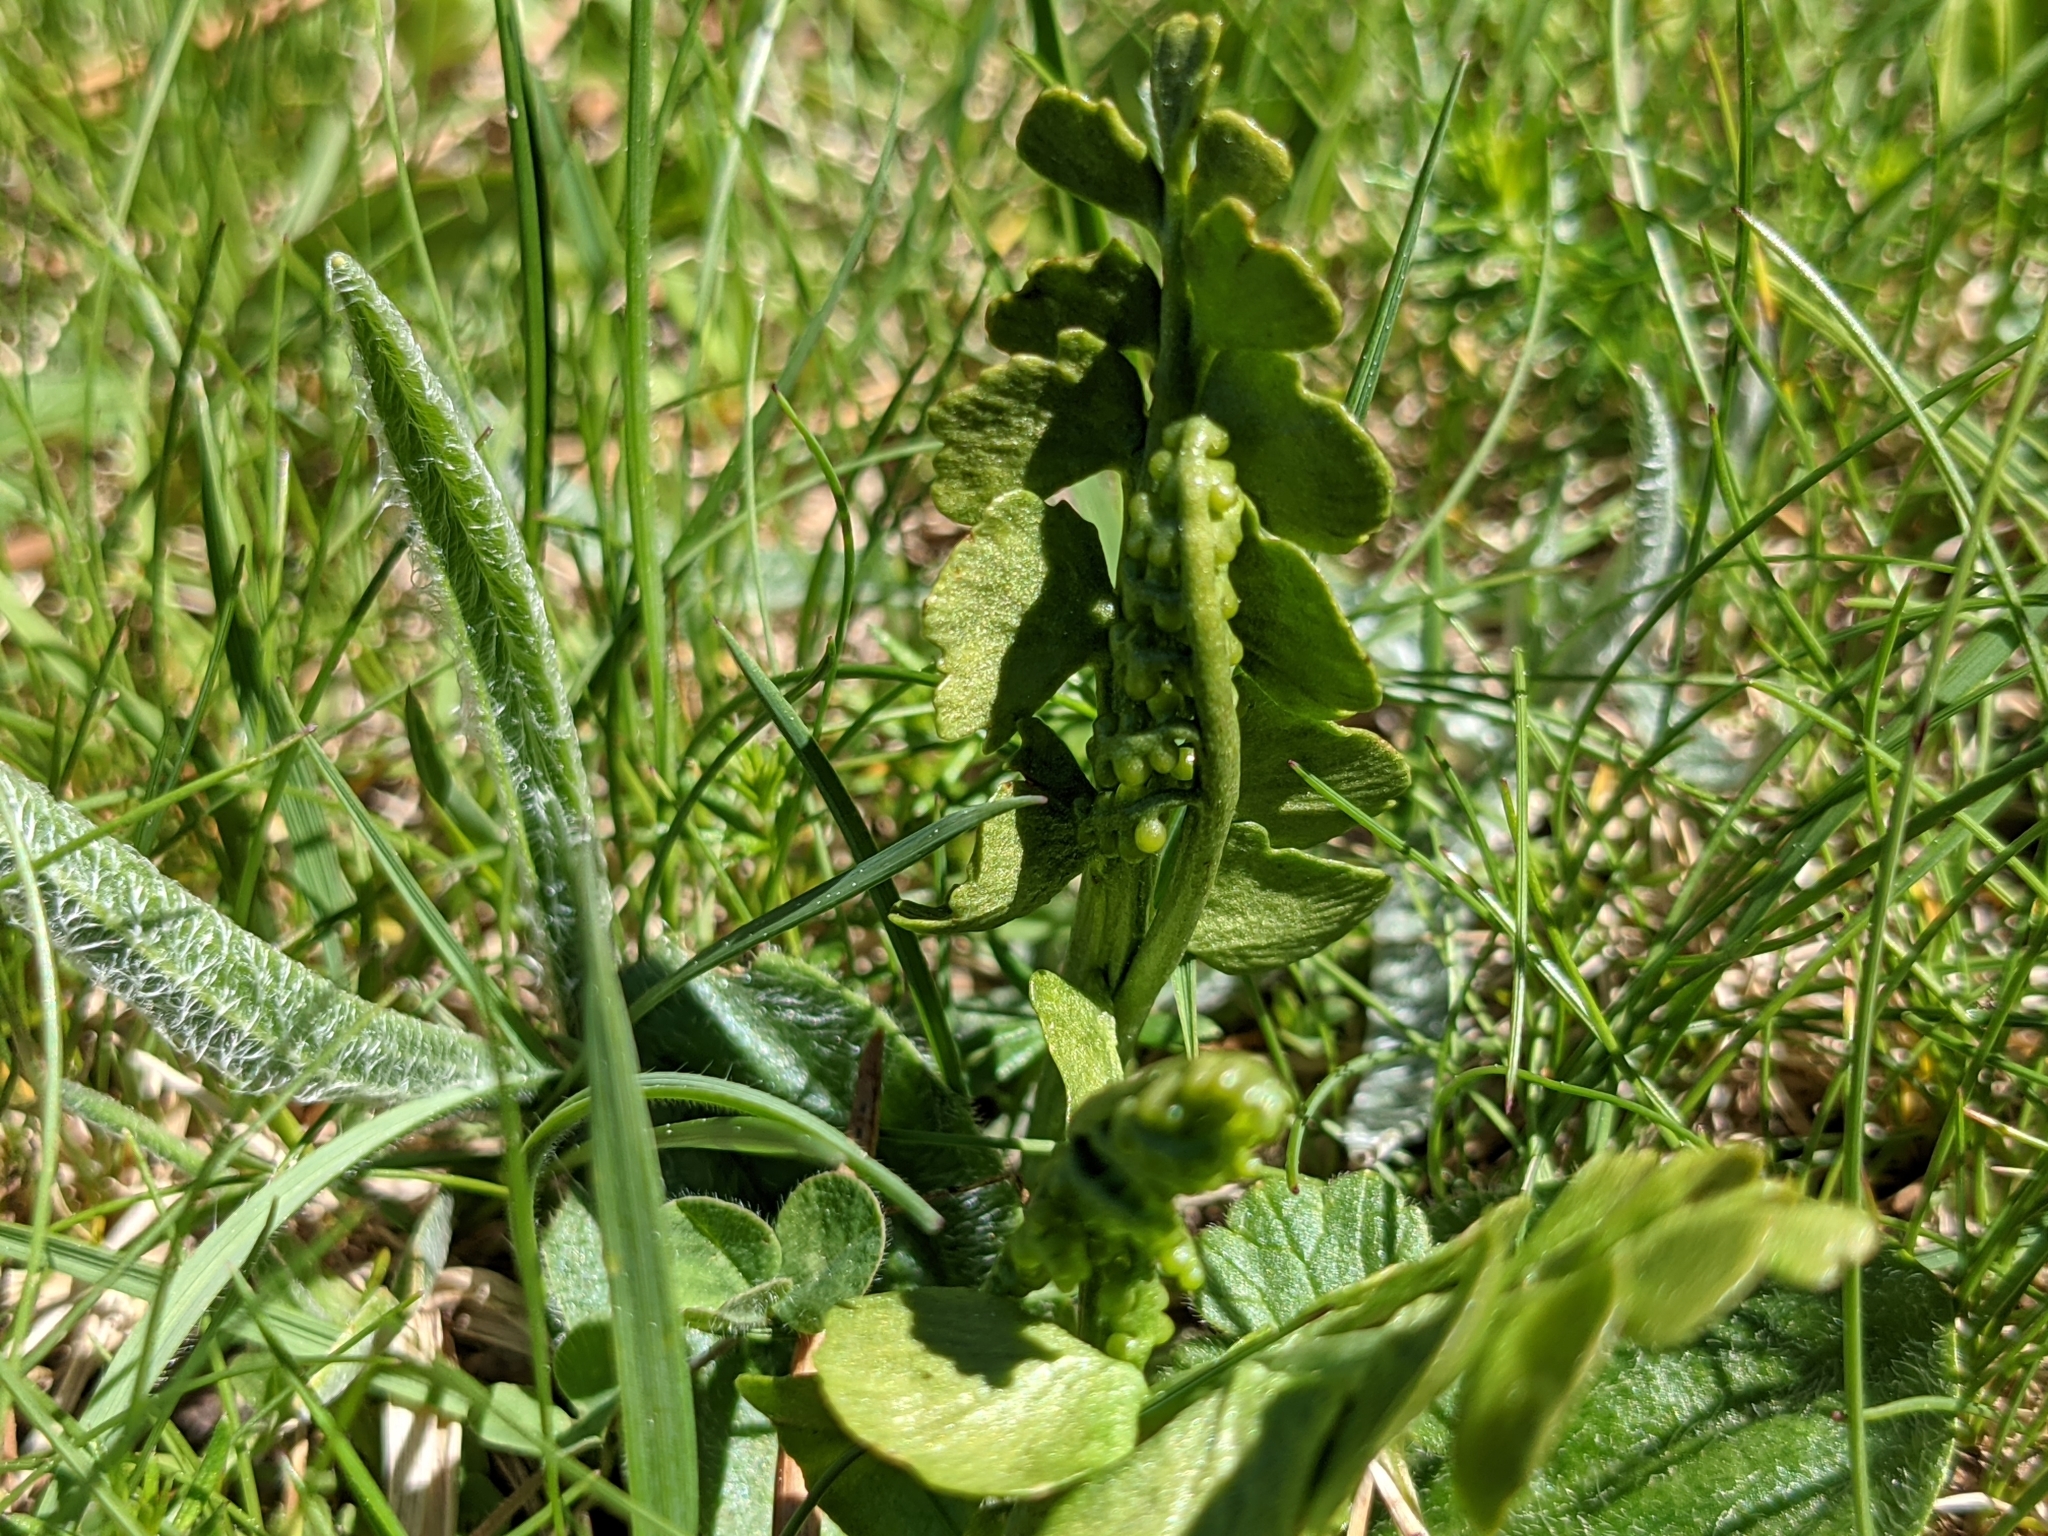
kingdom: Plantae
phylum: Tracheophyta
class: Polypodiopsida
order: Ophioglossales
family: Ophioglossaceae
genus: Botrychium
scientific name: Botrychium lunaria
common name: Moonwort
